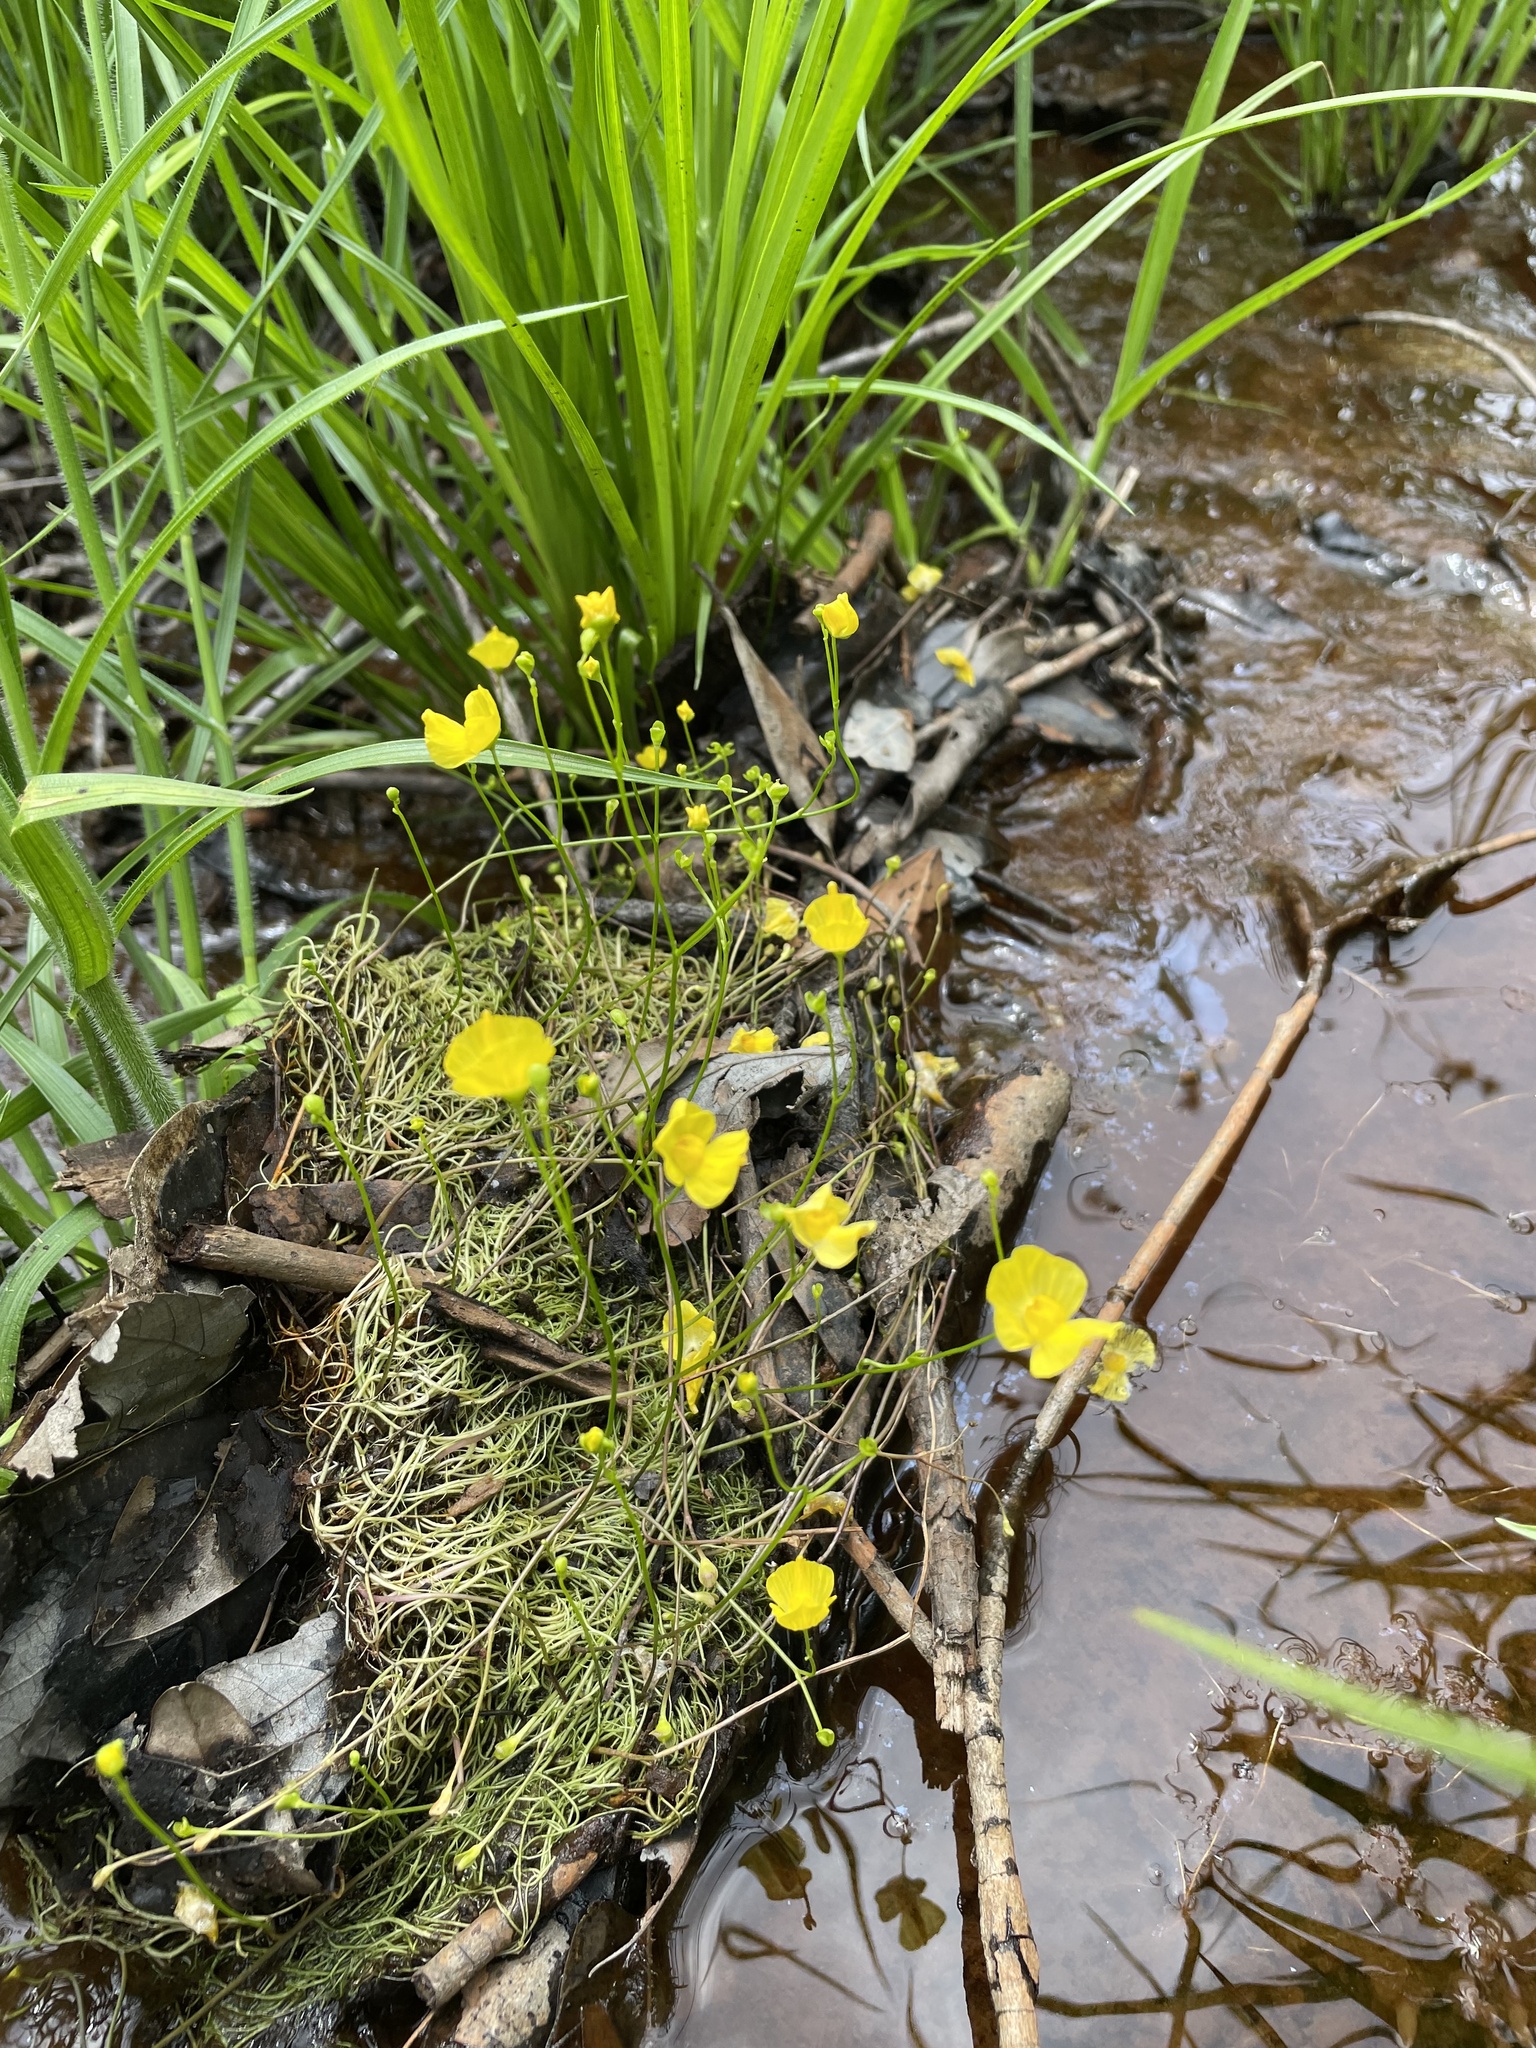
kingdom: Plantae
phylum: Tracheophyta
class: Magnoliopsida
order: Lamiales
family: Lentibulariaceae
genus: Utricularia
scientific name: Utricularia gibba
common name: Humped bladderwort
